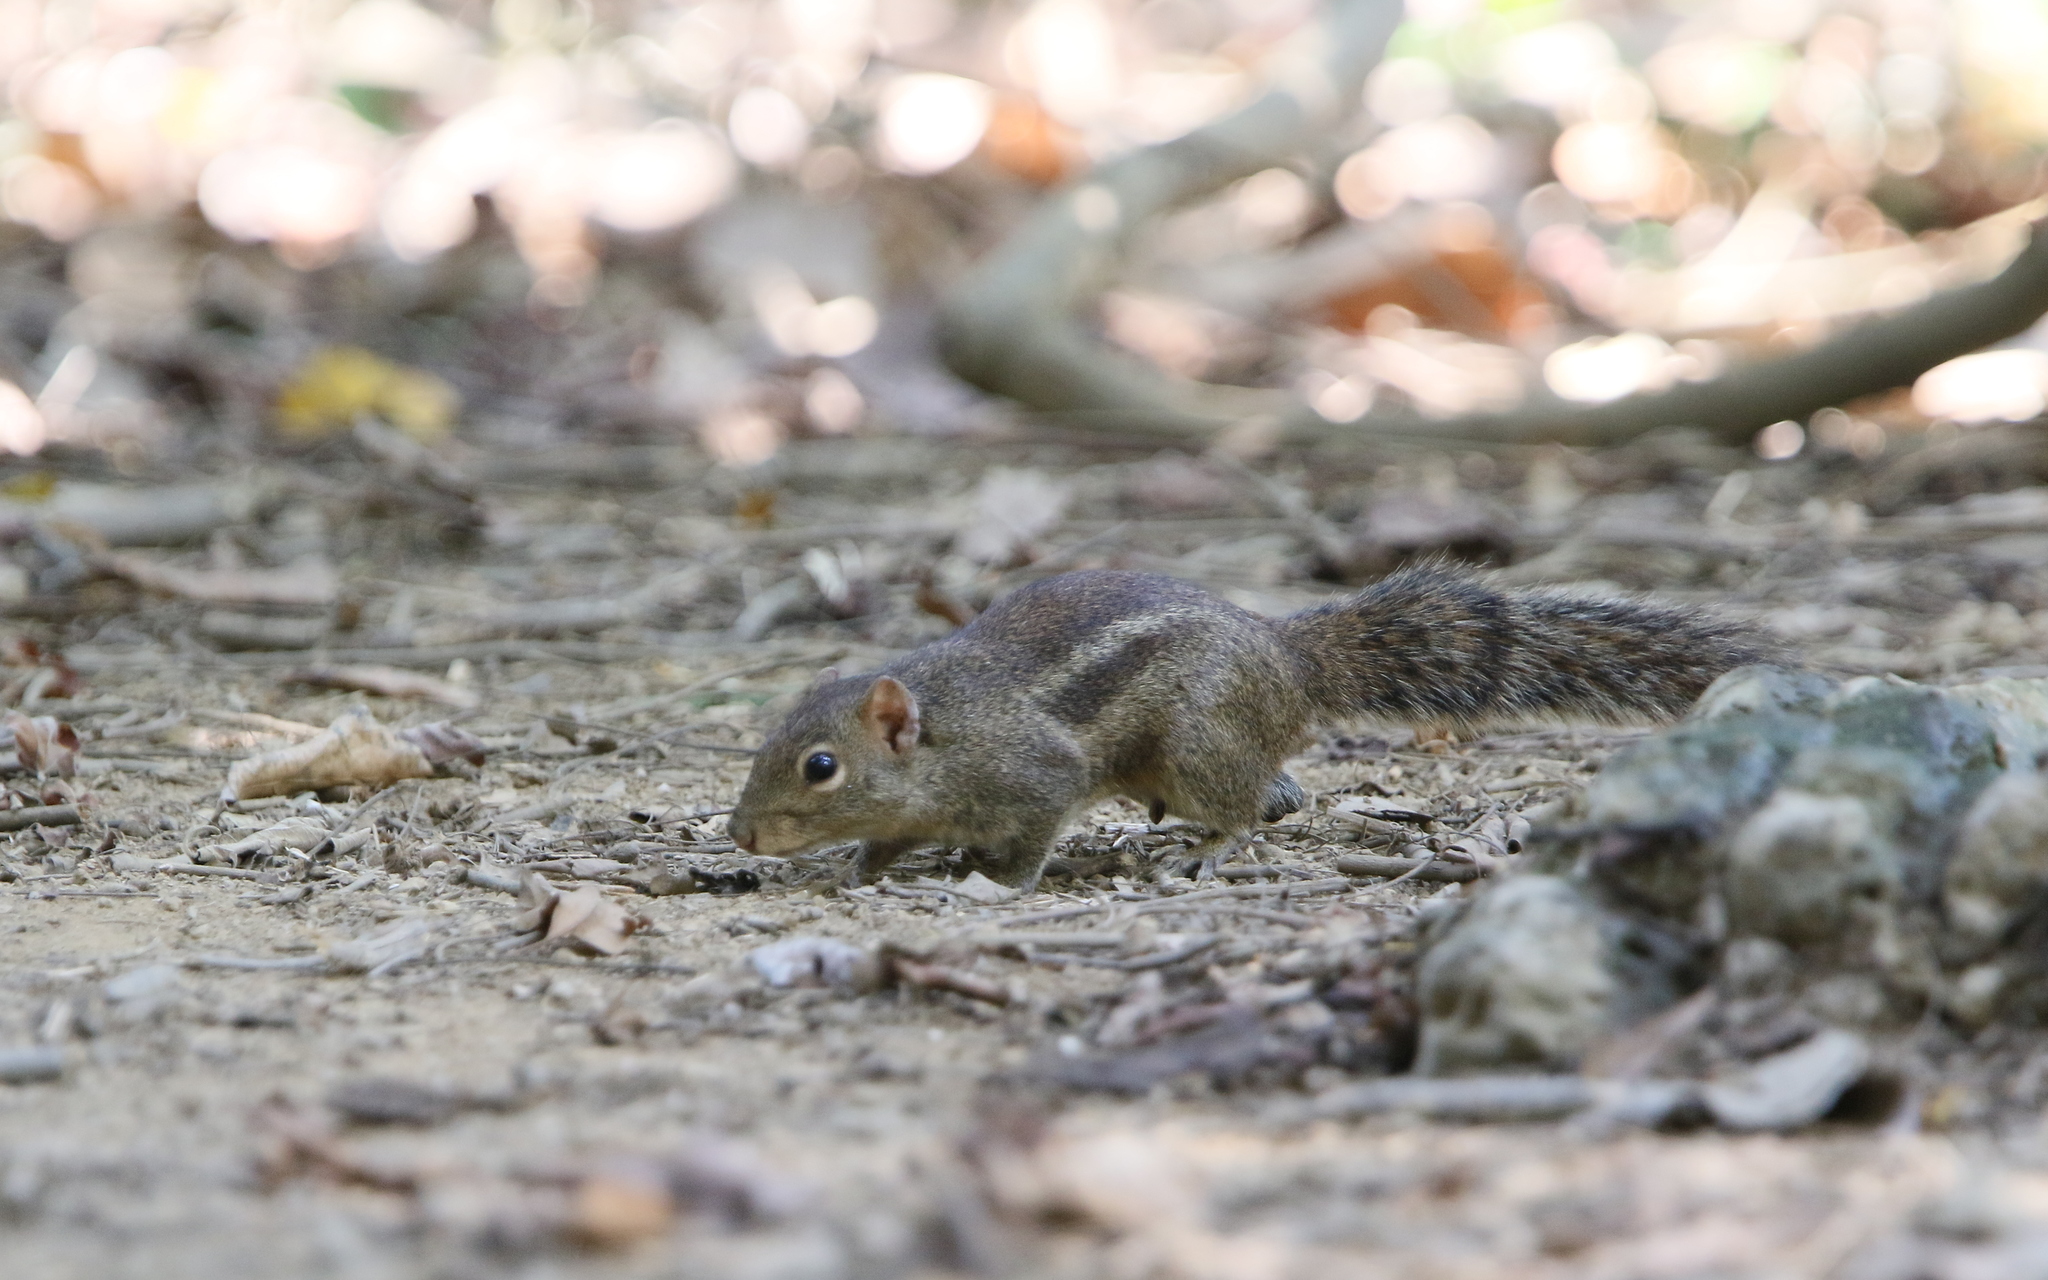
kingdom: Animalia
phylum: Chordata
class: Mammalia
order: Rodentia
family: Sciuridae
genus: Menetes
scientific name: Menetes berdmorei
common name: Indochinese ground squirrel
